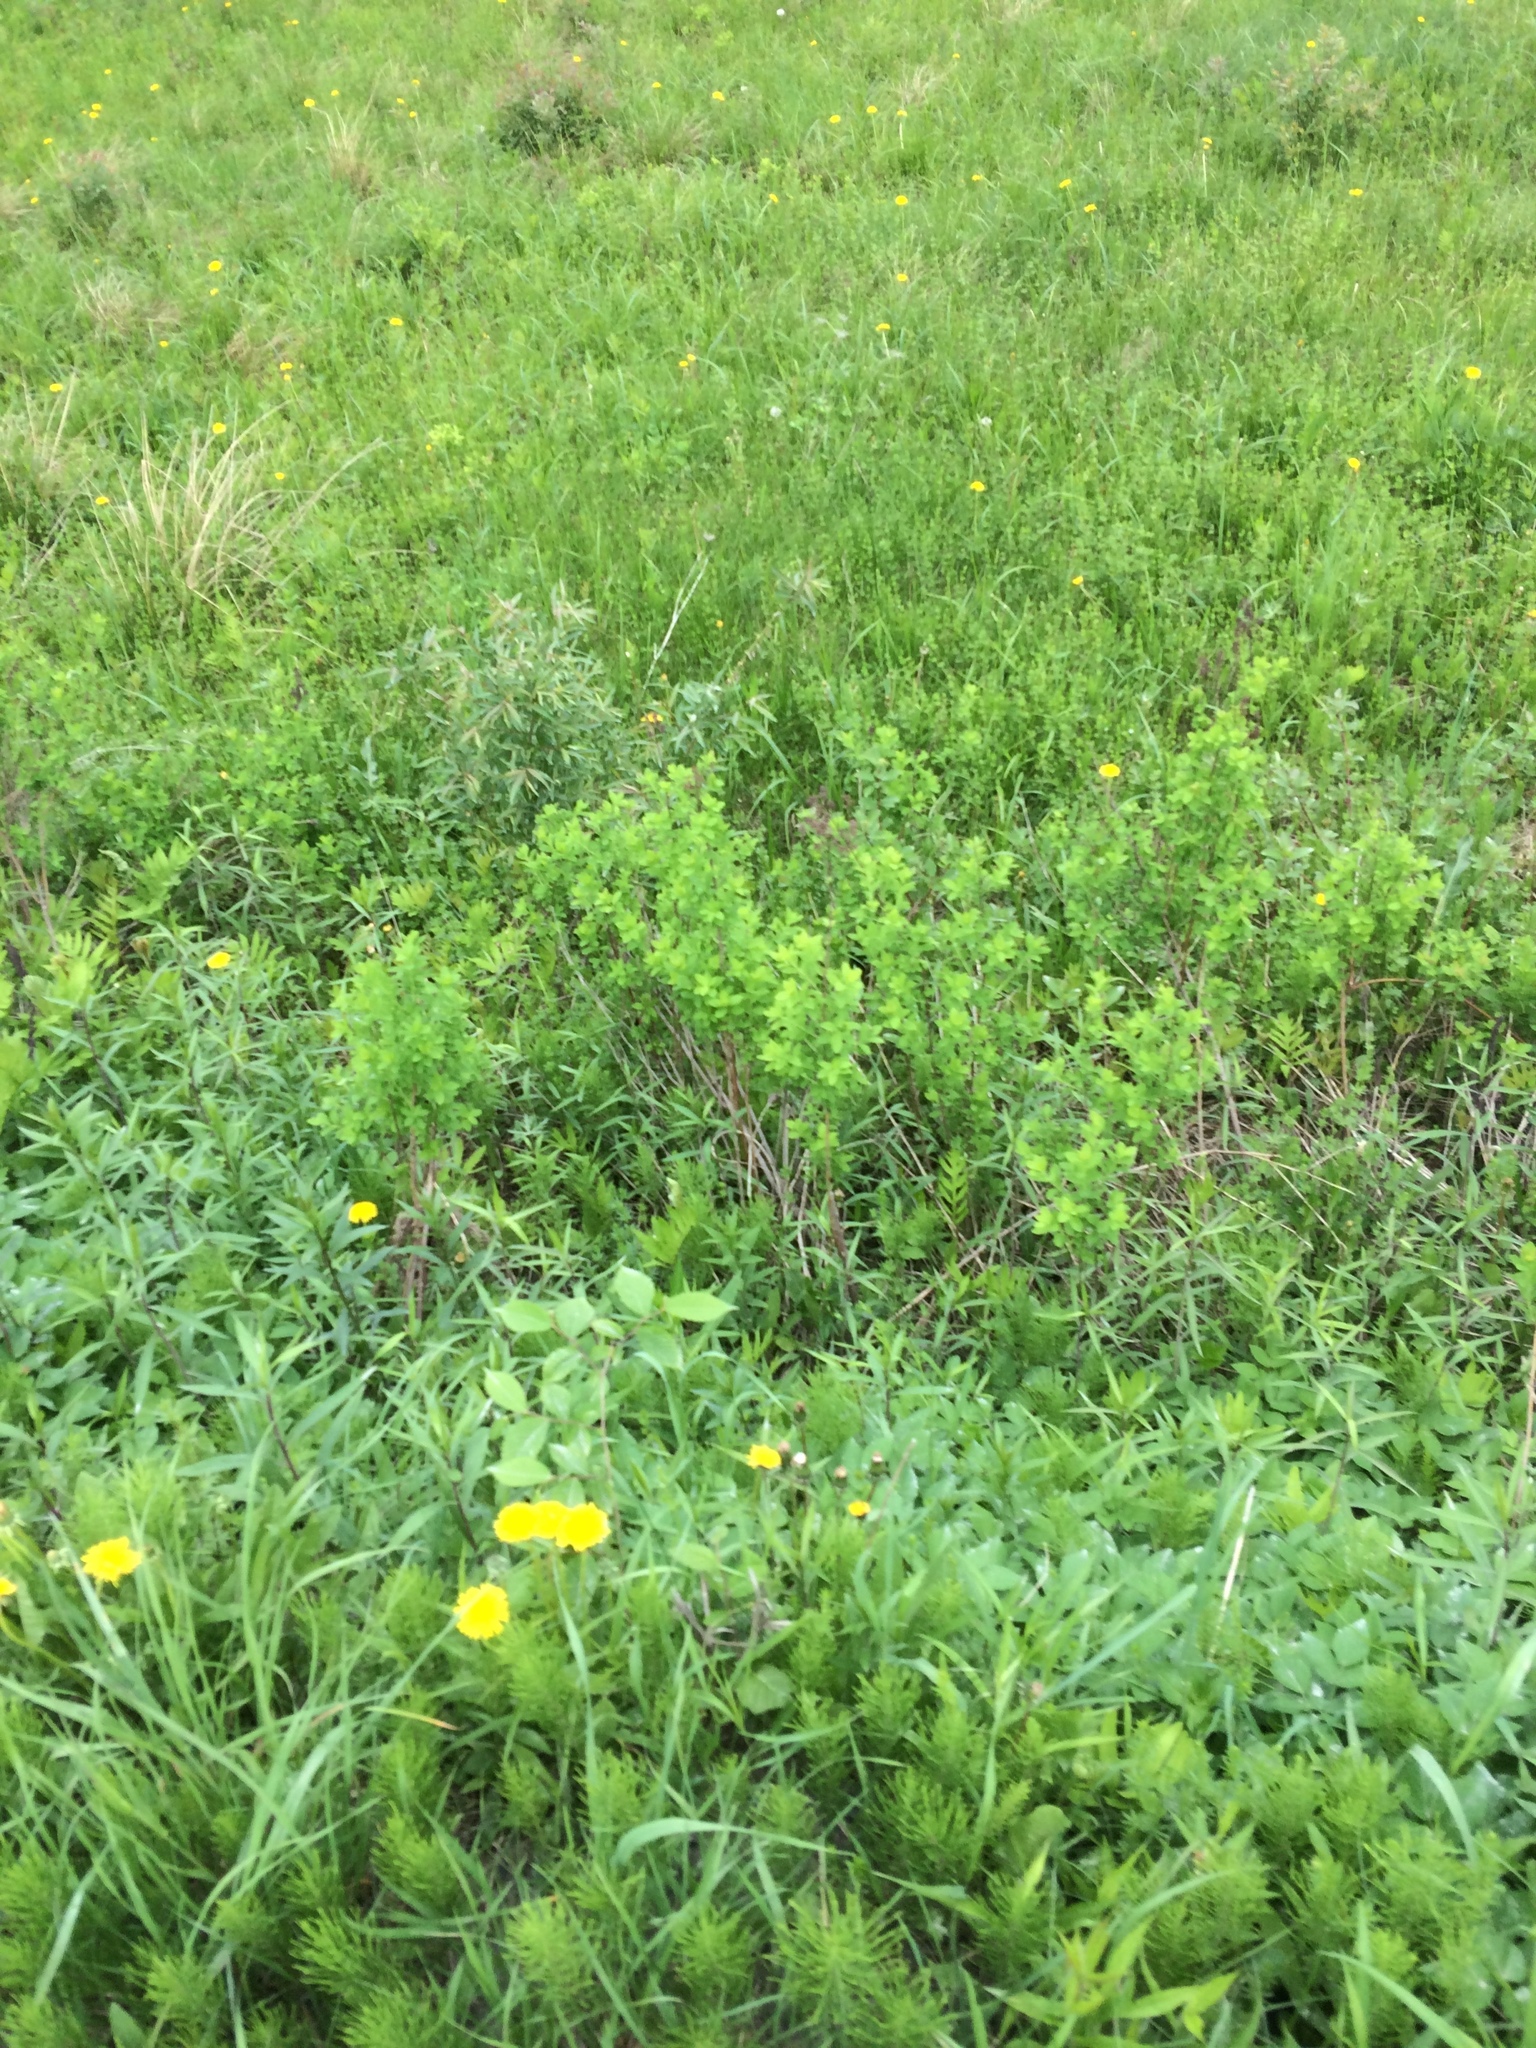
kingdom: Plantae
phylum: Tracheophyta
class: Magnoliopsida
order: Rosales
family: Rosaceae
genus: Spiraea
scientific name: Spiraea alba
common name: Pale bridewort
